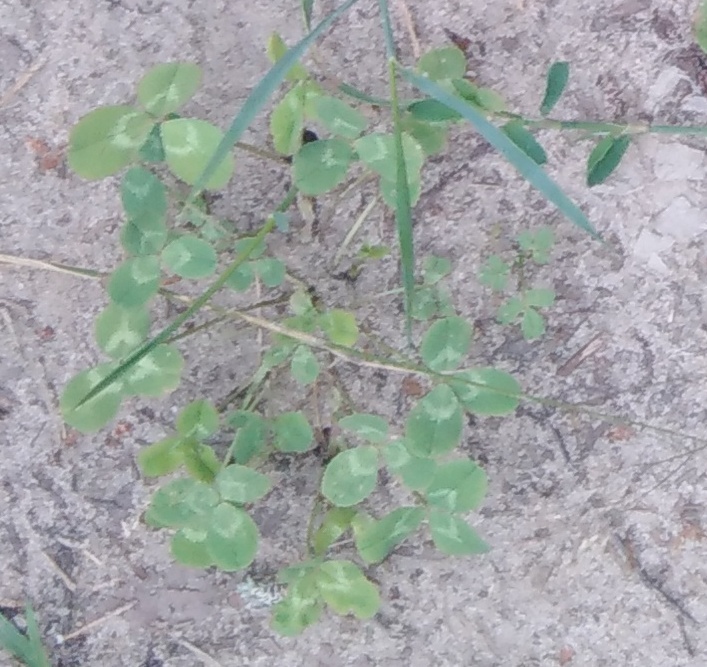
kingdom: Plantae
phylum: Tracheophyta
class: Magnoliopsida
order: Fabales
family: Fabaceae
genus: Trifolium
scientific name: Trifolium repens
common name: White clover
